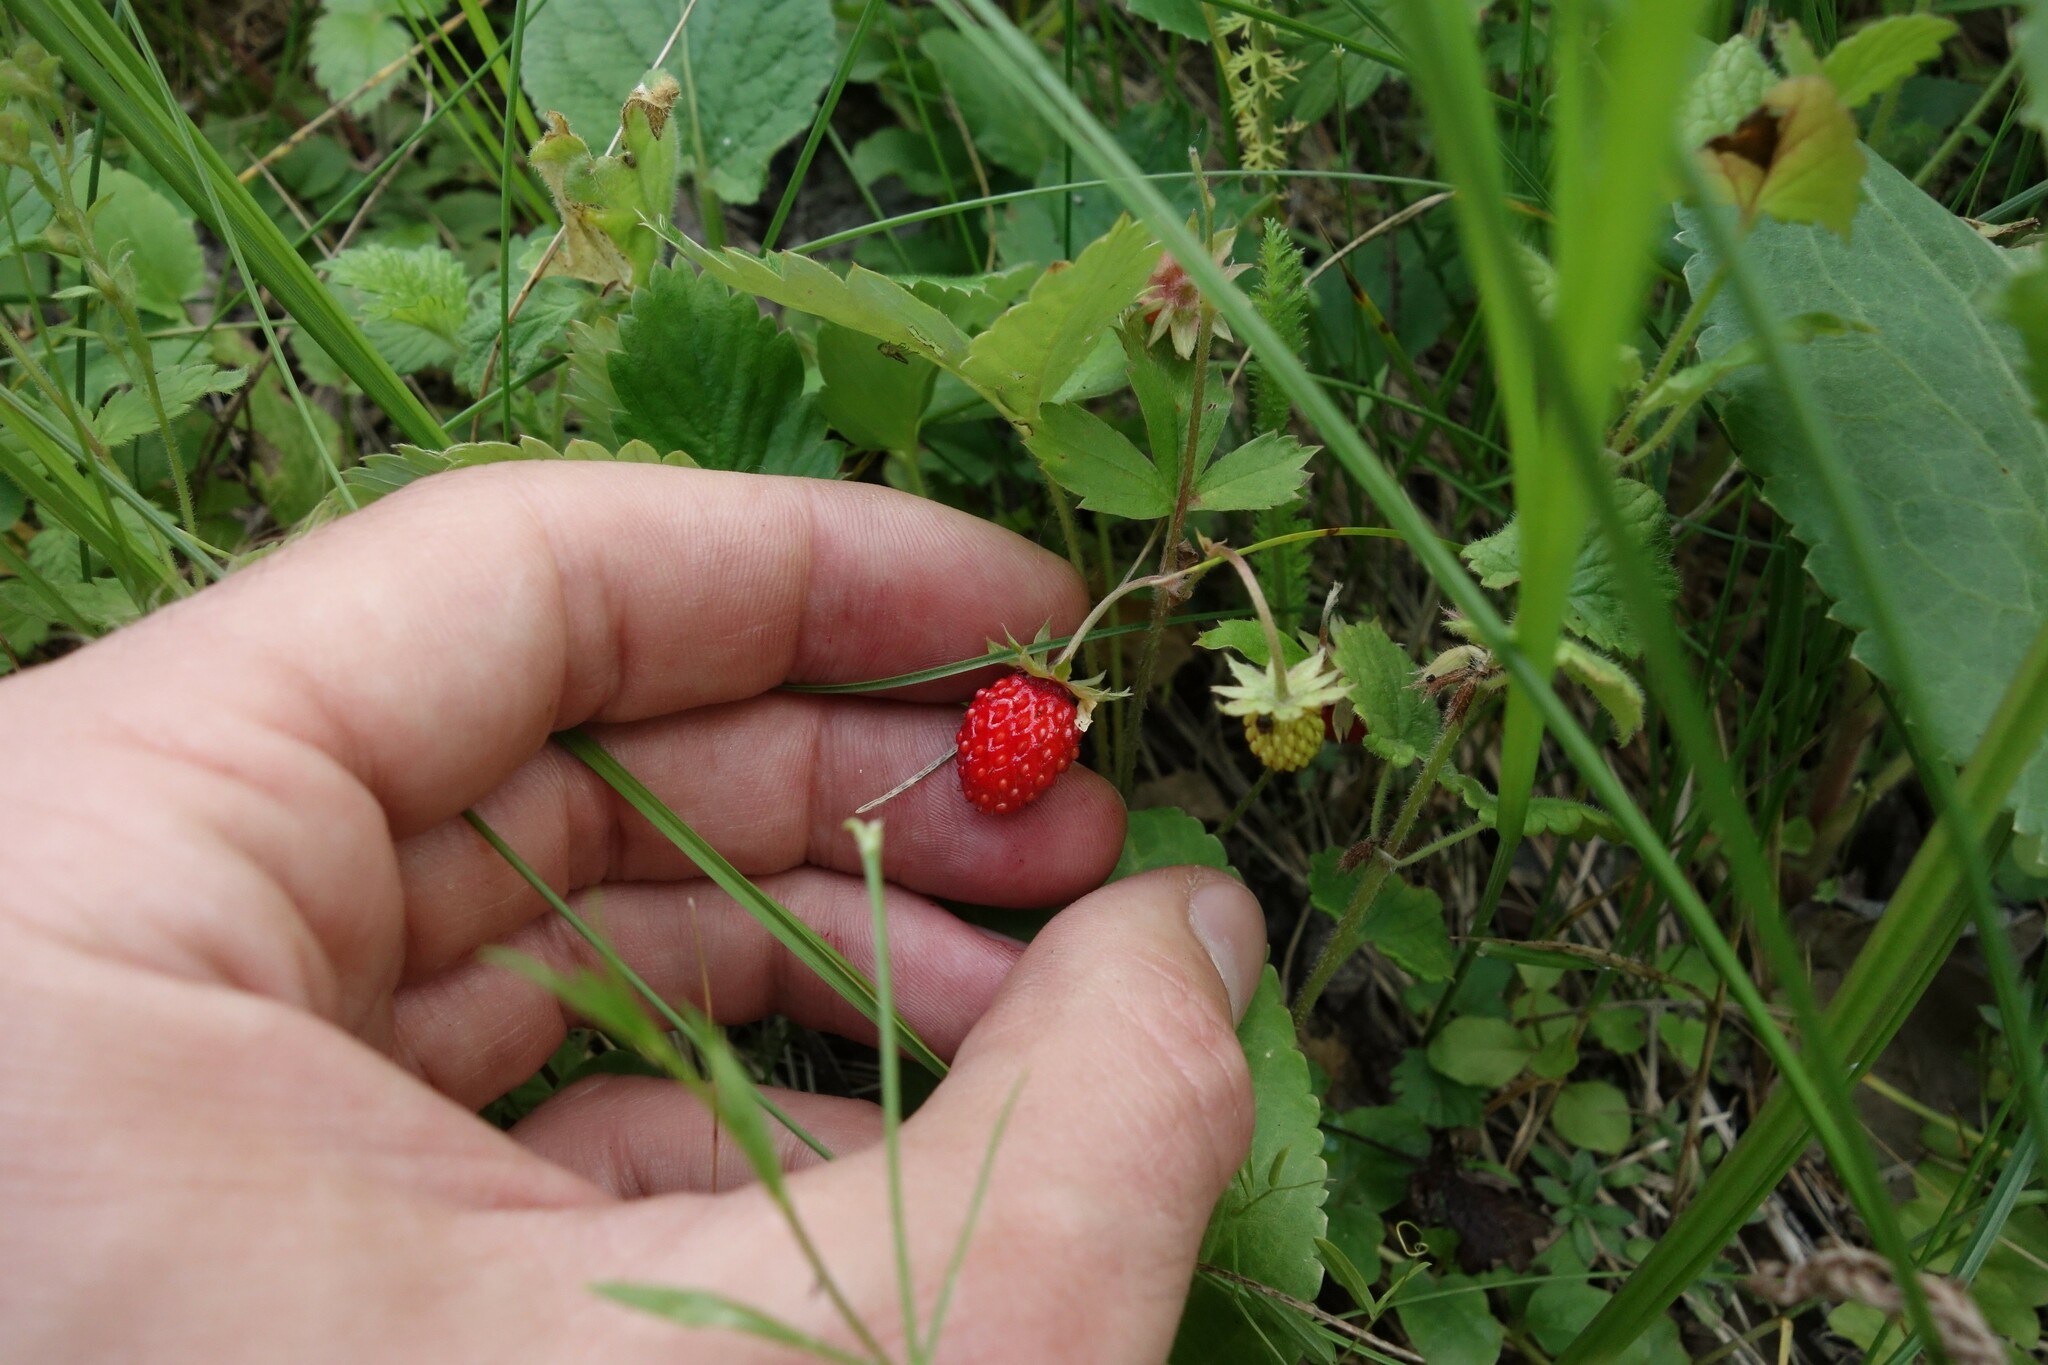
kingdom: Plantae
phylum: Tracheophyta
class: Magnoliopsida
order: Rosales
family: Rosaceae
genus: Fragaria
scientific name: Fragaria vesca
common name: Wild strawberry
